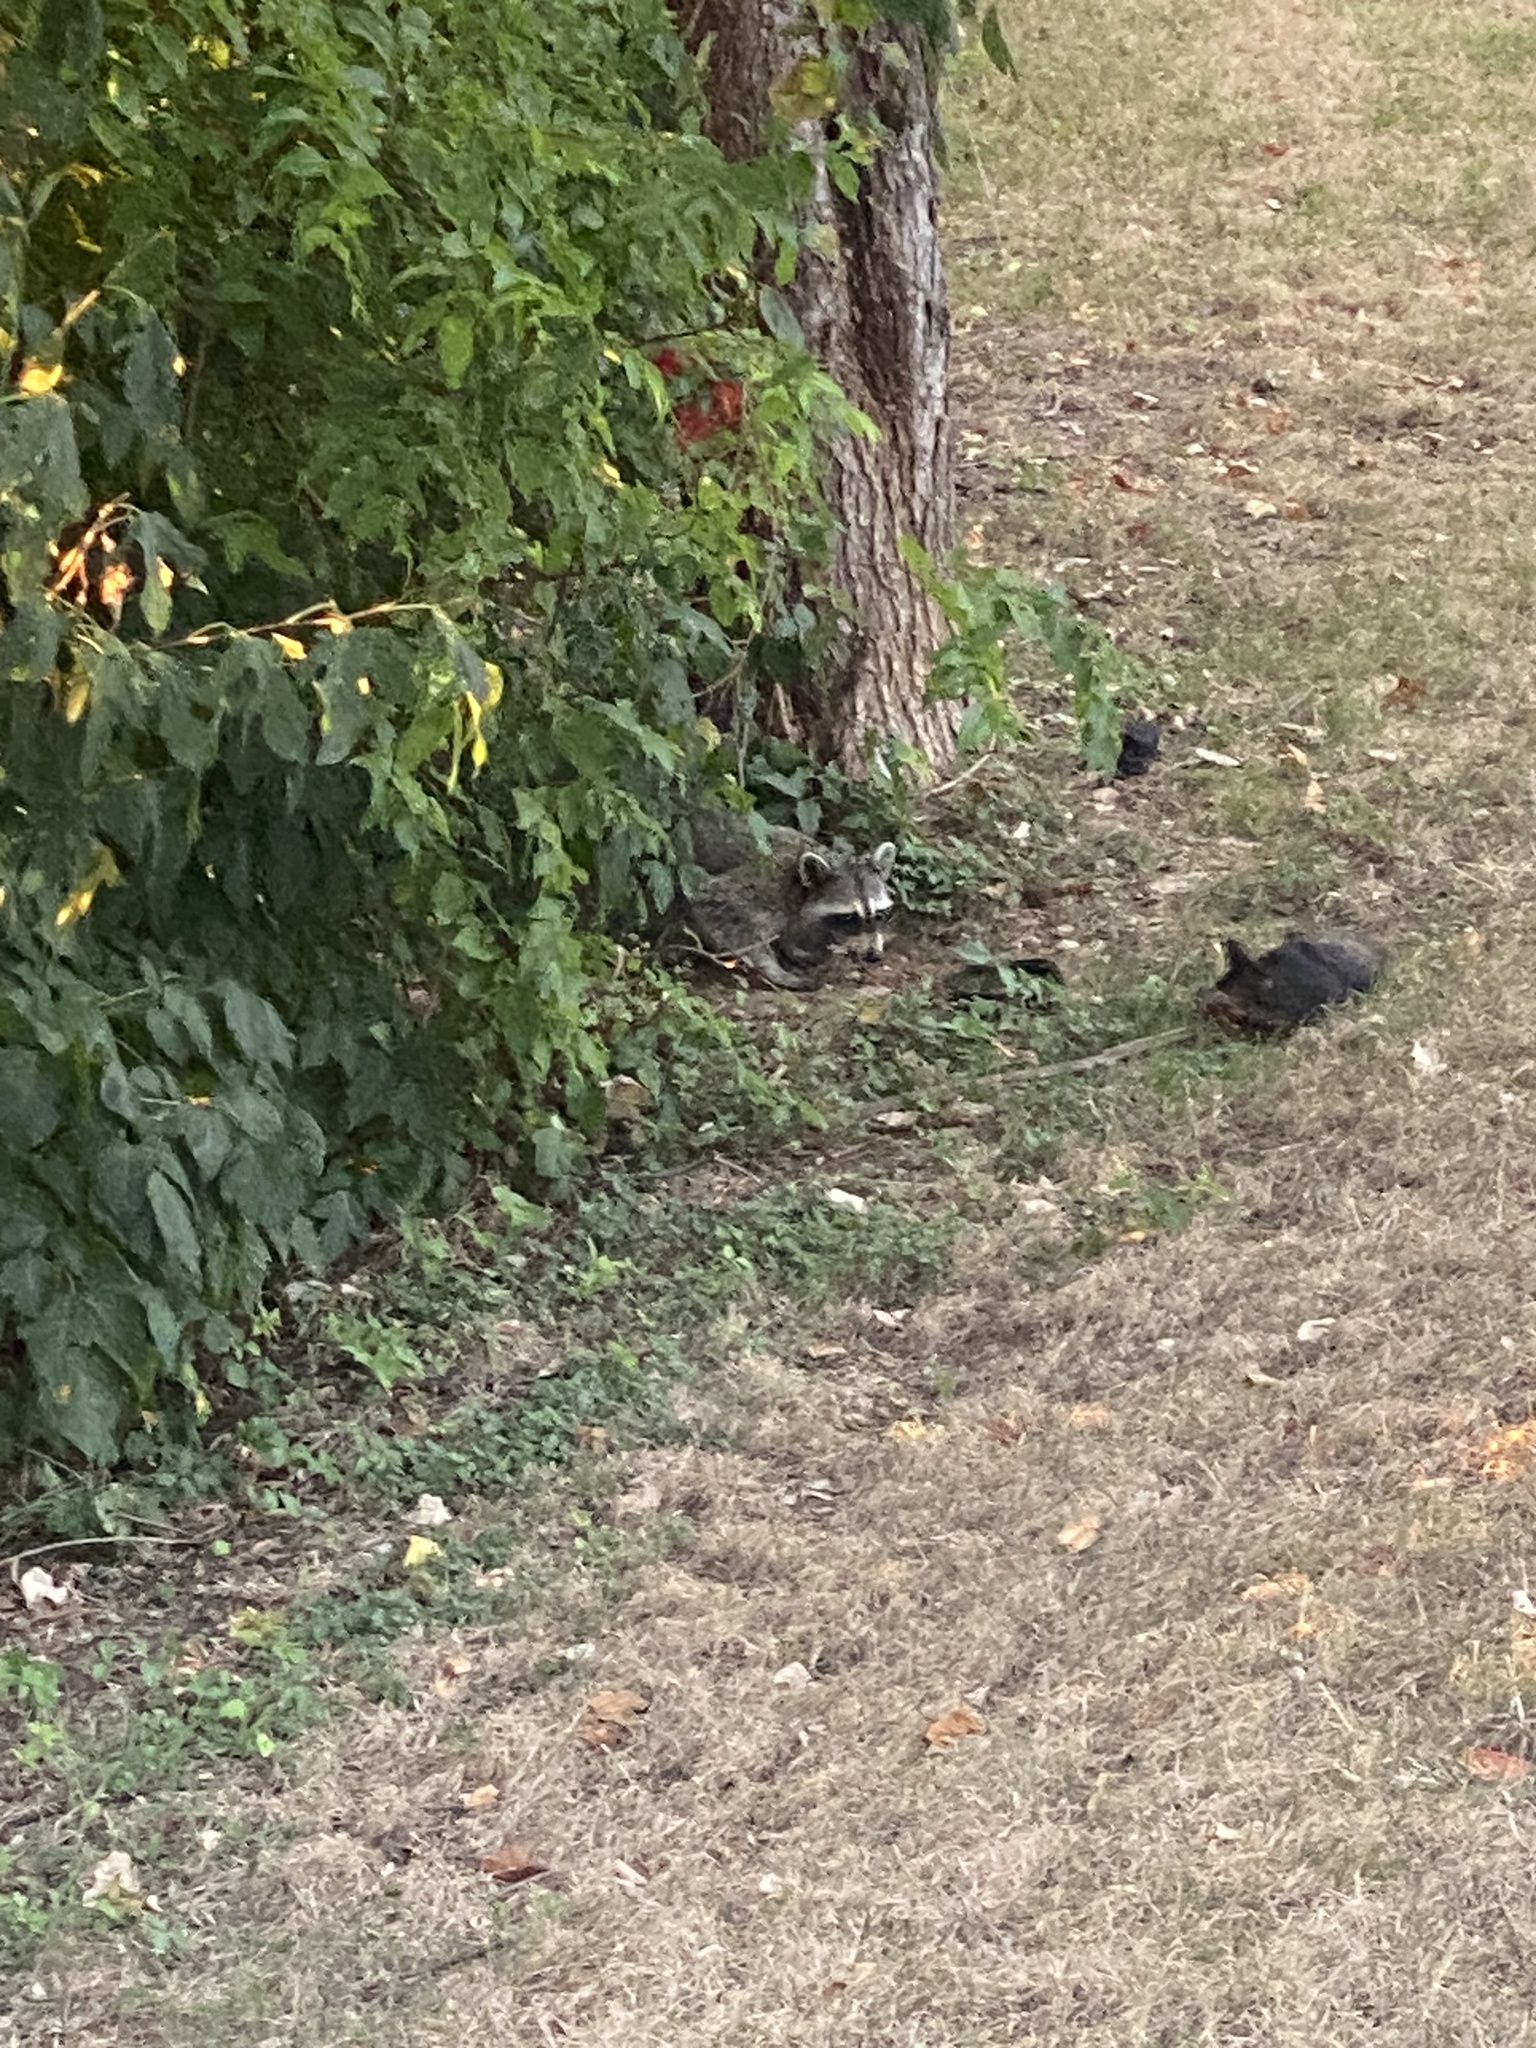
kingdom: Animalia
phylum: Chordata
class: Mammalia
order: Carnivora
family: Procyonidae
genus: Procyon
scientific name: Procyon lotor
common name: Raccoon
